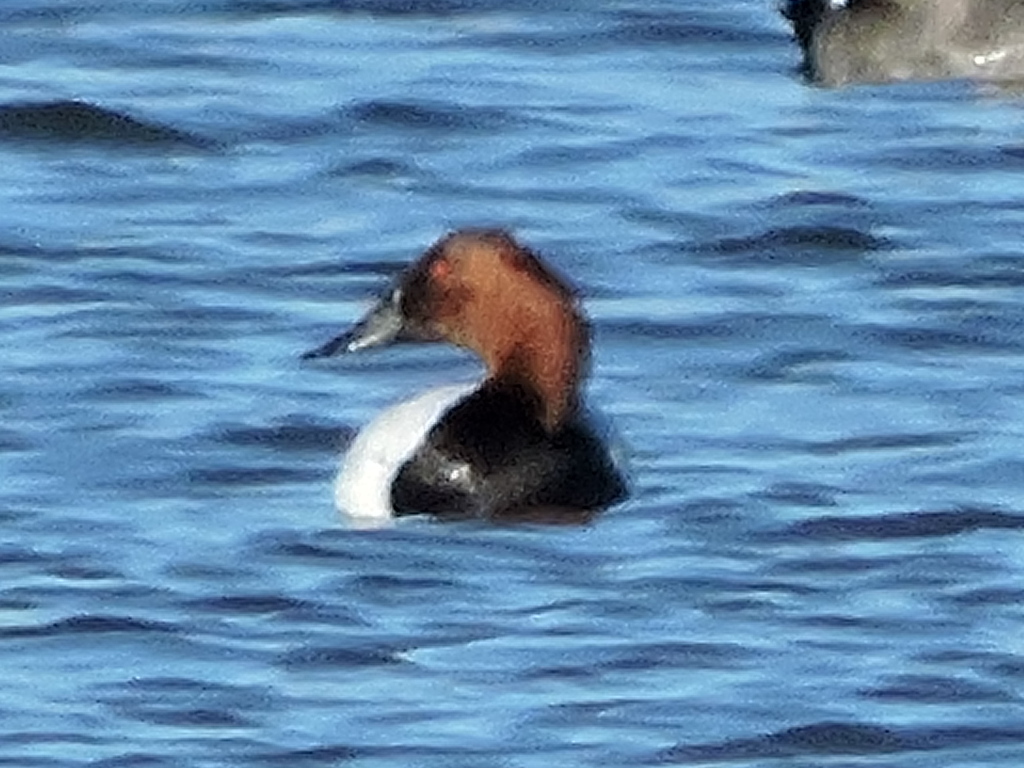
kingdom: Animalia
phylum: Chordata
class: Aves
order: Anseriformes
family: Anatidae
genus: Aythya
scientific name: Aythya valisineria
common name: Canvasback
